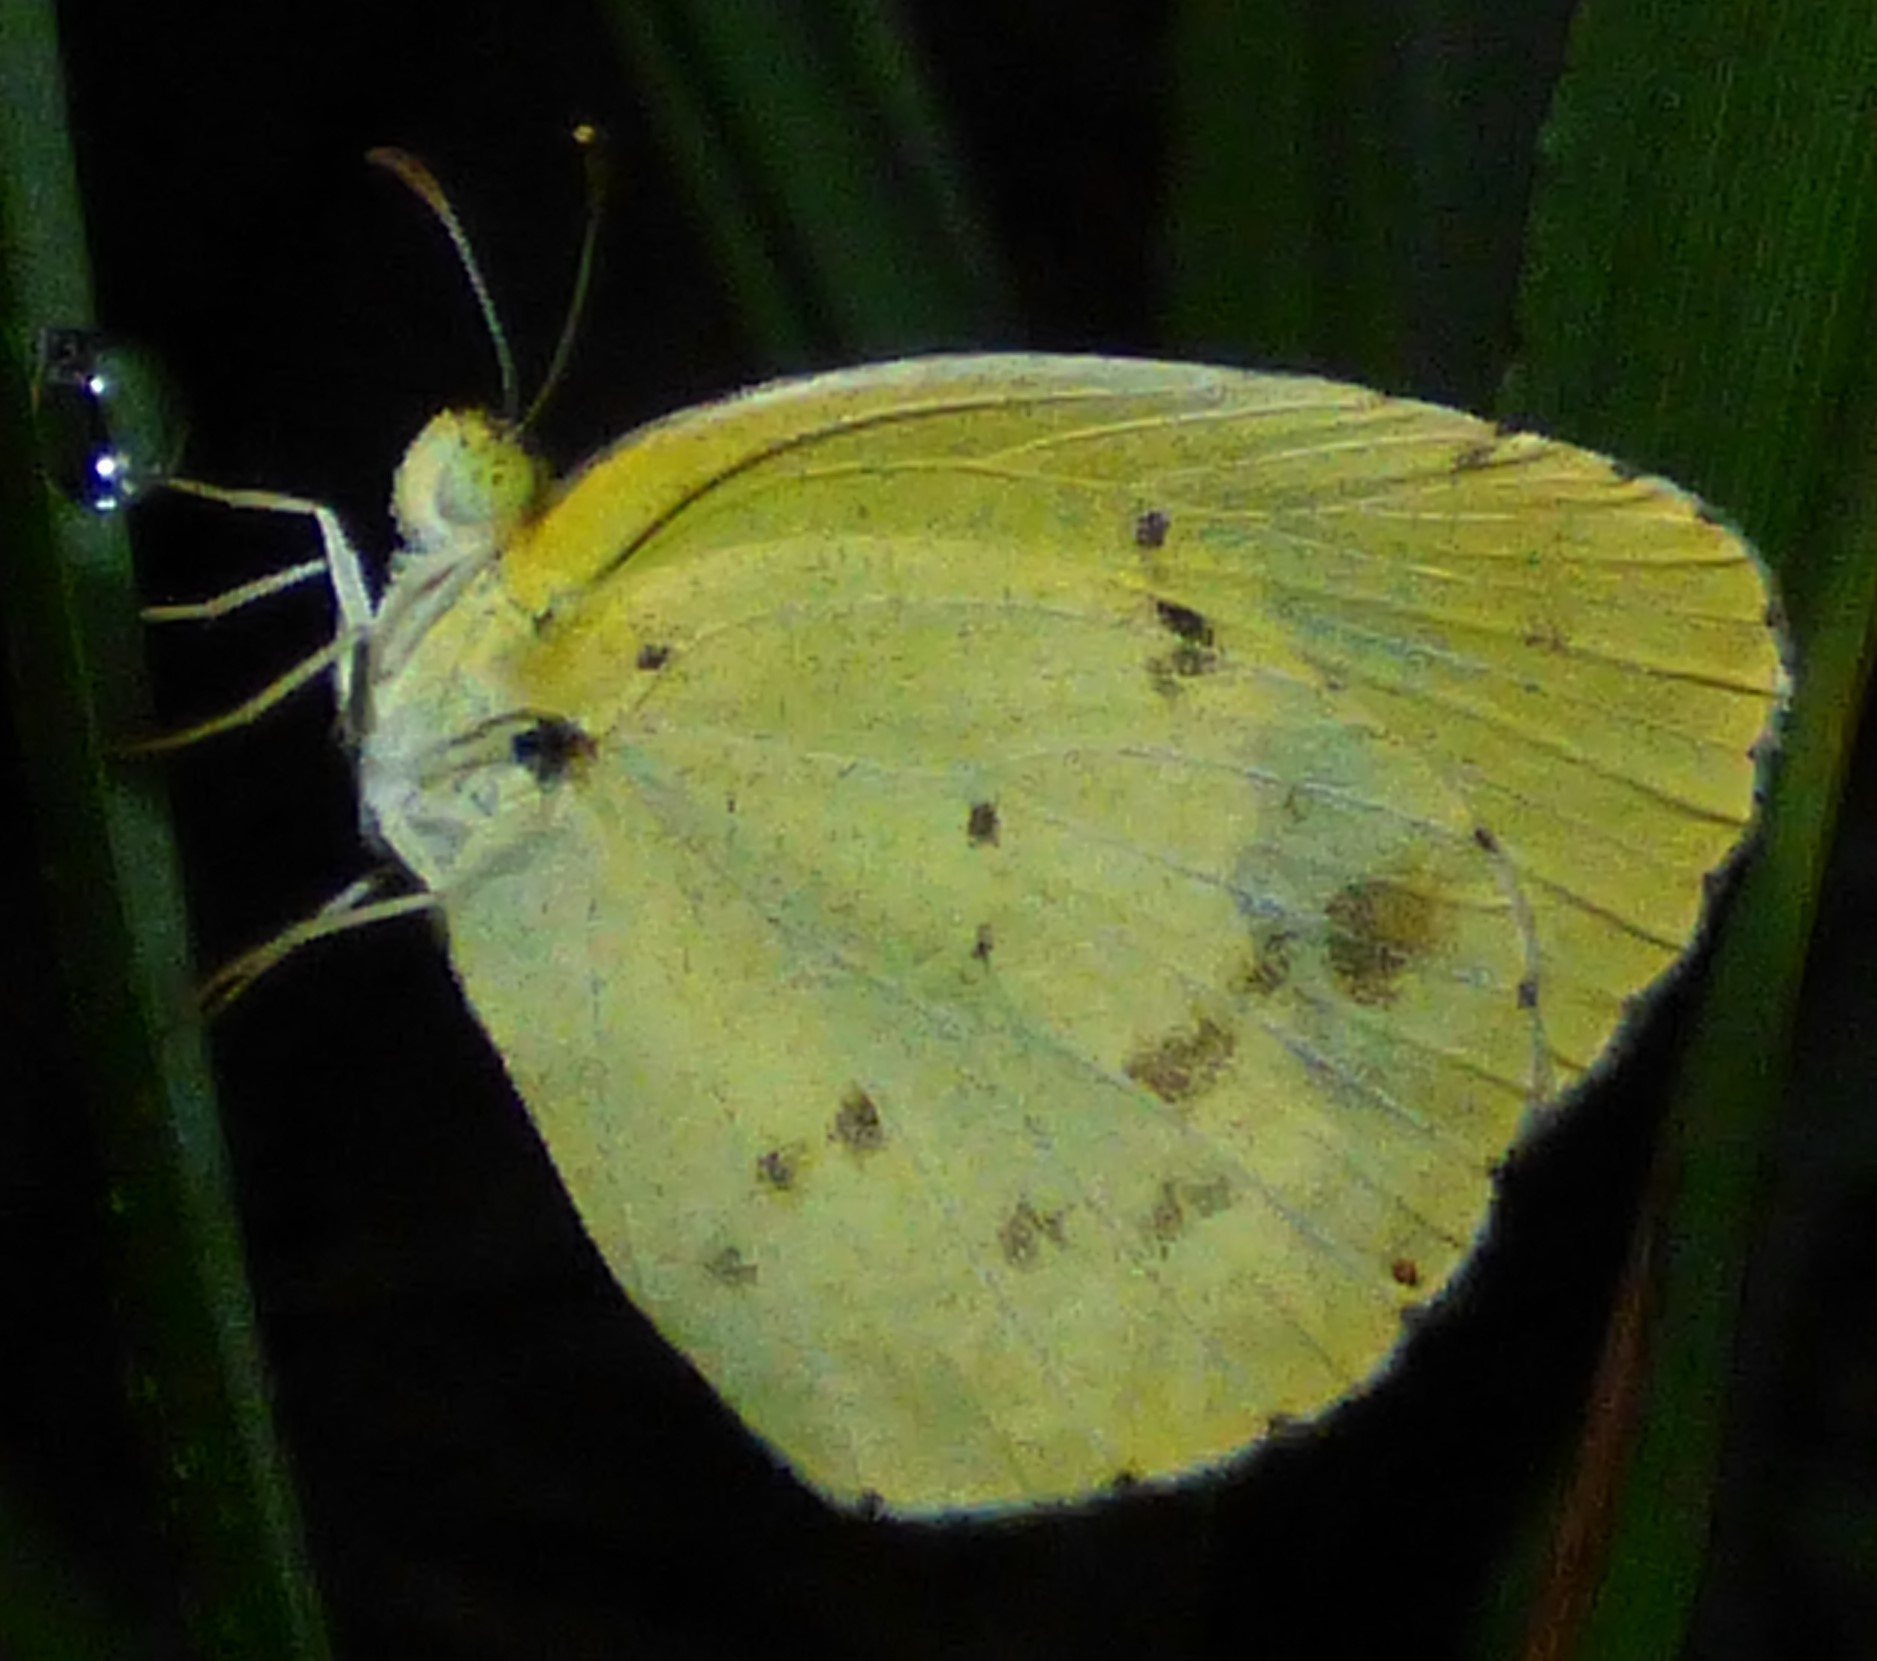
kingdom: Animalia
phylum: Arthropoda
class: Insecta
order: Lepidoptera
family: Pieridae
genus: Pyrisitia
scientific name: Pyrisitia lisa
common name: Little yellow
